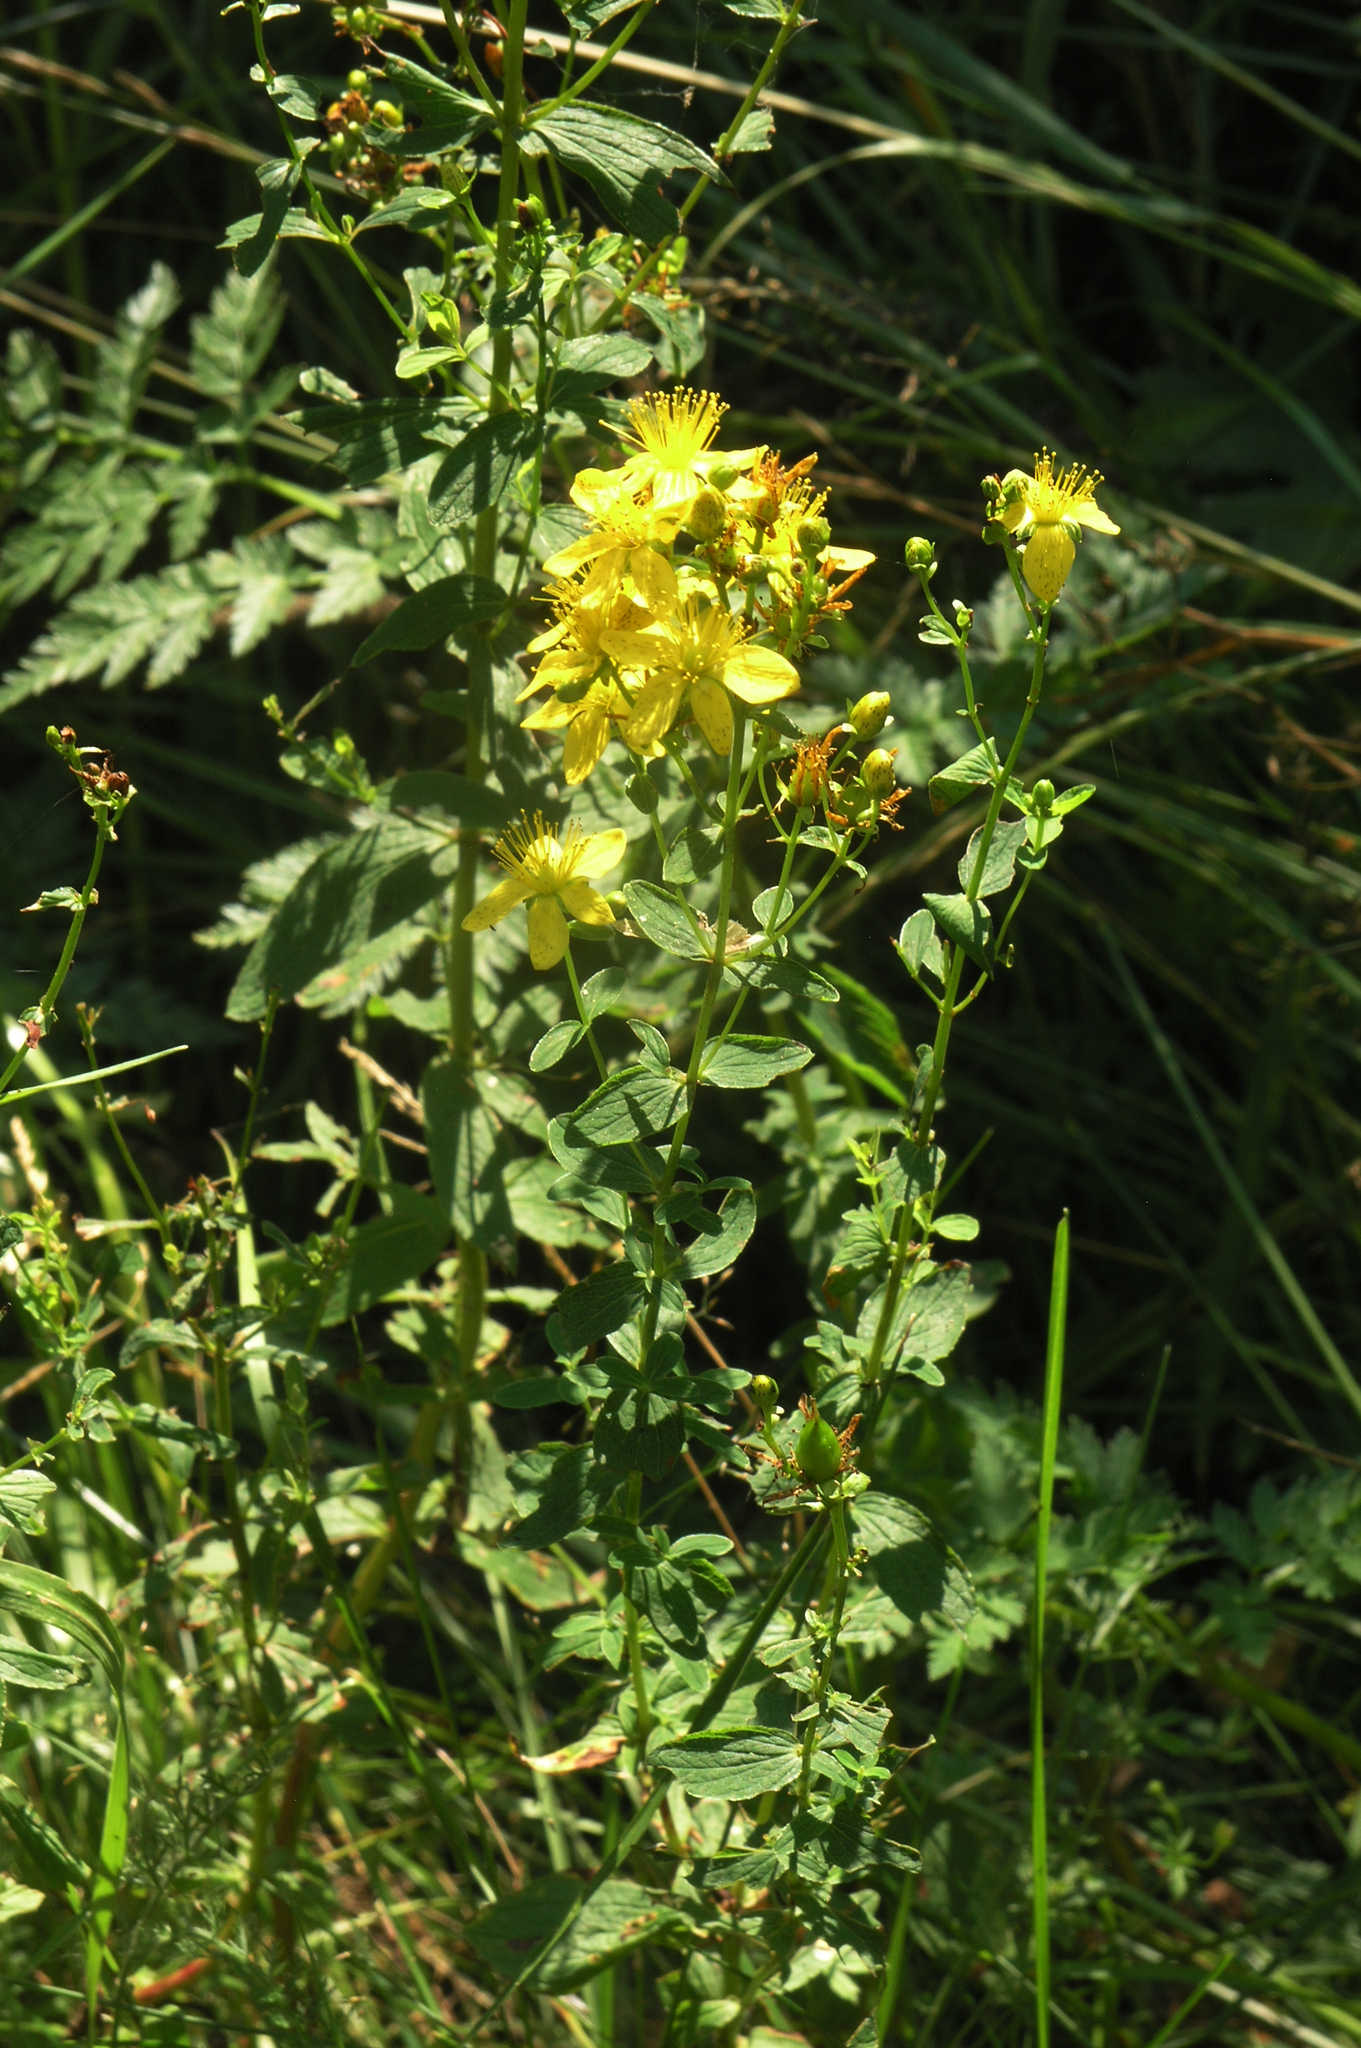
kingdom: Plantae
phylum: Tracheophyta
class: Magnoliopsida
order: Malpighiales
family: Hypericaceae
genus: Hypericum
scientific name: Hypericum maculatum
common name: Imperforate st. john's-wort
